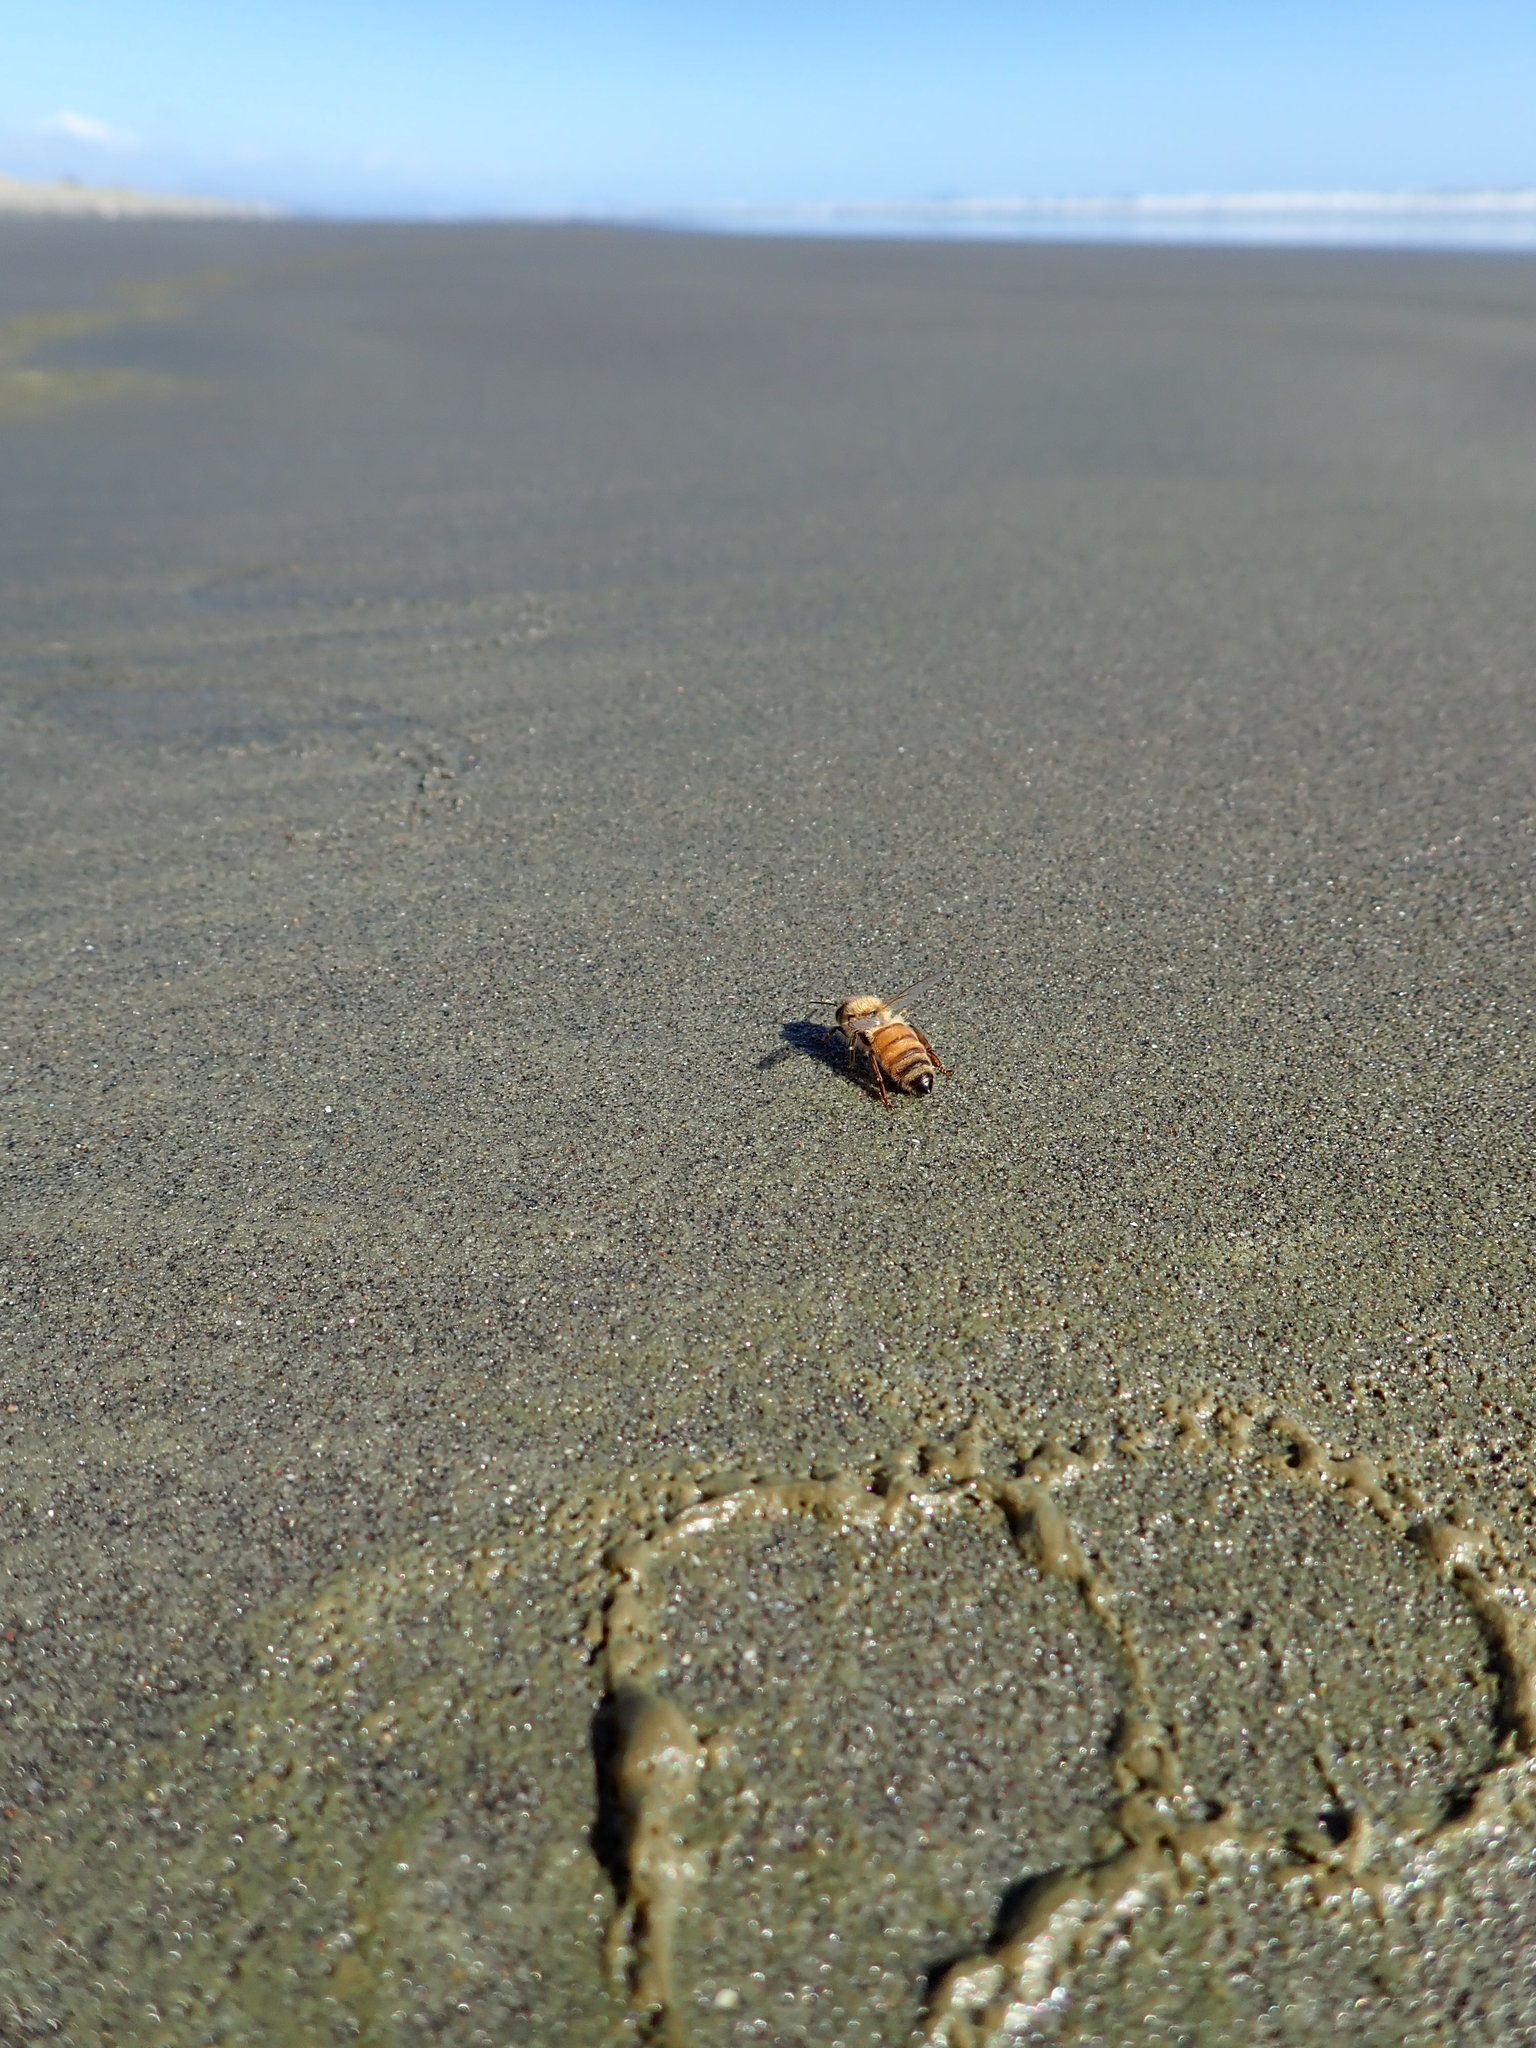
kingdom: Animalia
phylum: Arthropoda
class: Insecta
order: Hymenoptera
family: Apidae
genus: Apis
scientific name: Apis mellifera
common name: Honey bee
